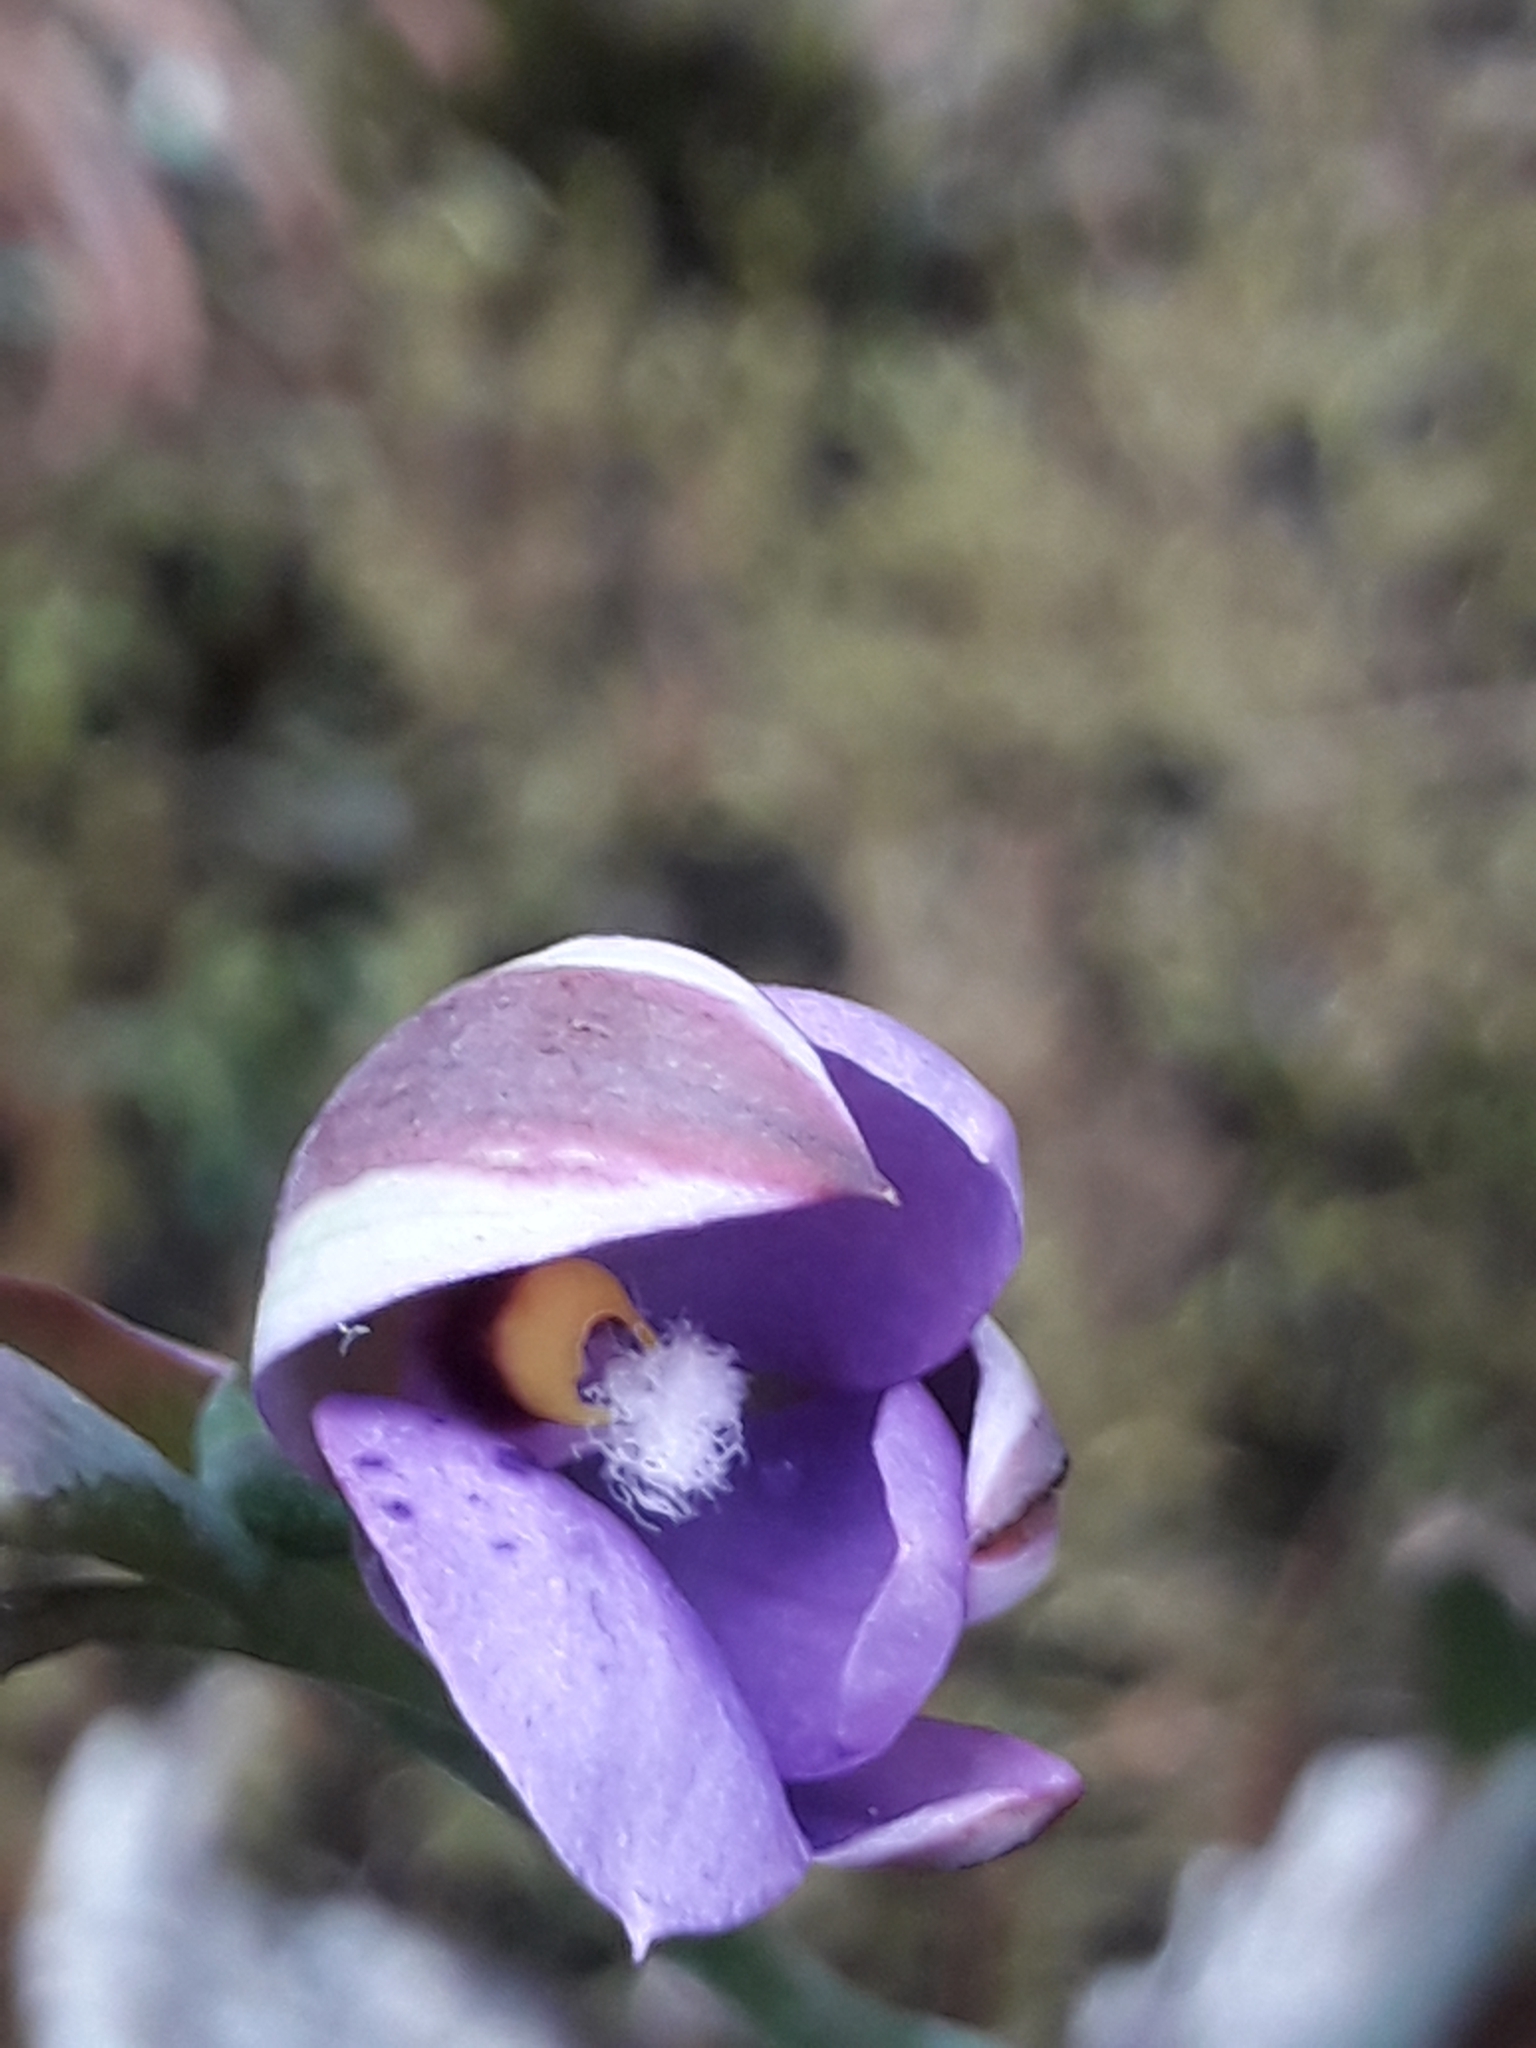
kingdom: Plantae
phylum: Tracheophyta
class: Liliopsida
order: Asparagales
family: Orchidaceae
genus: Thelymitra
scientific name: Thelymitra nervosa
